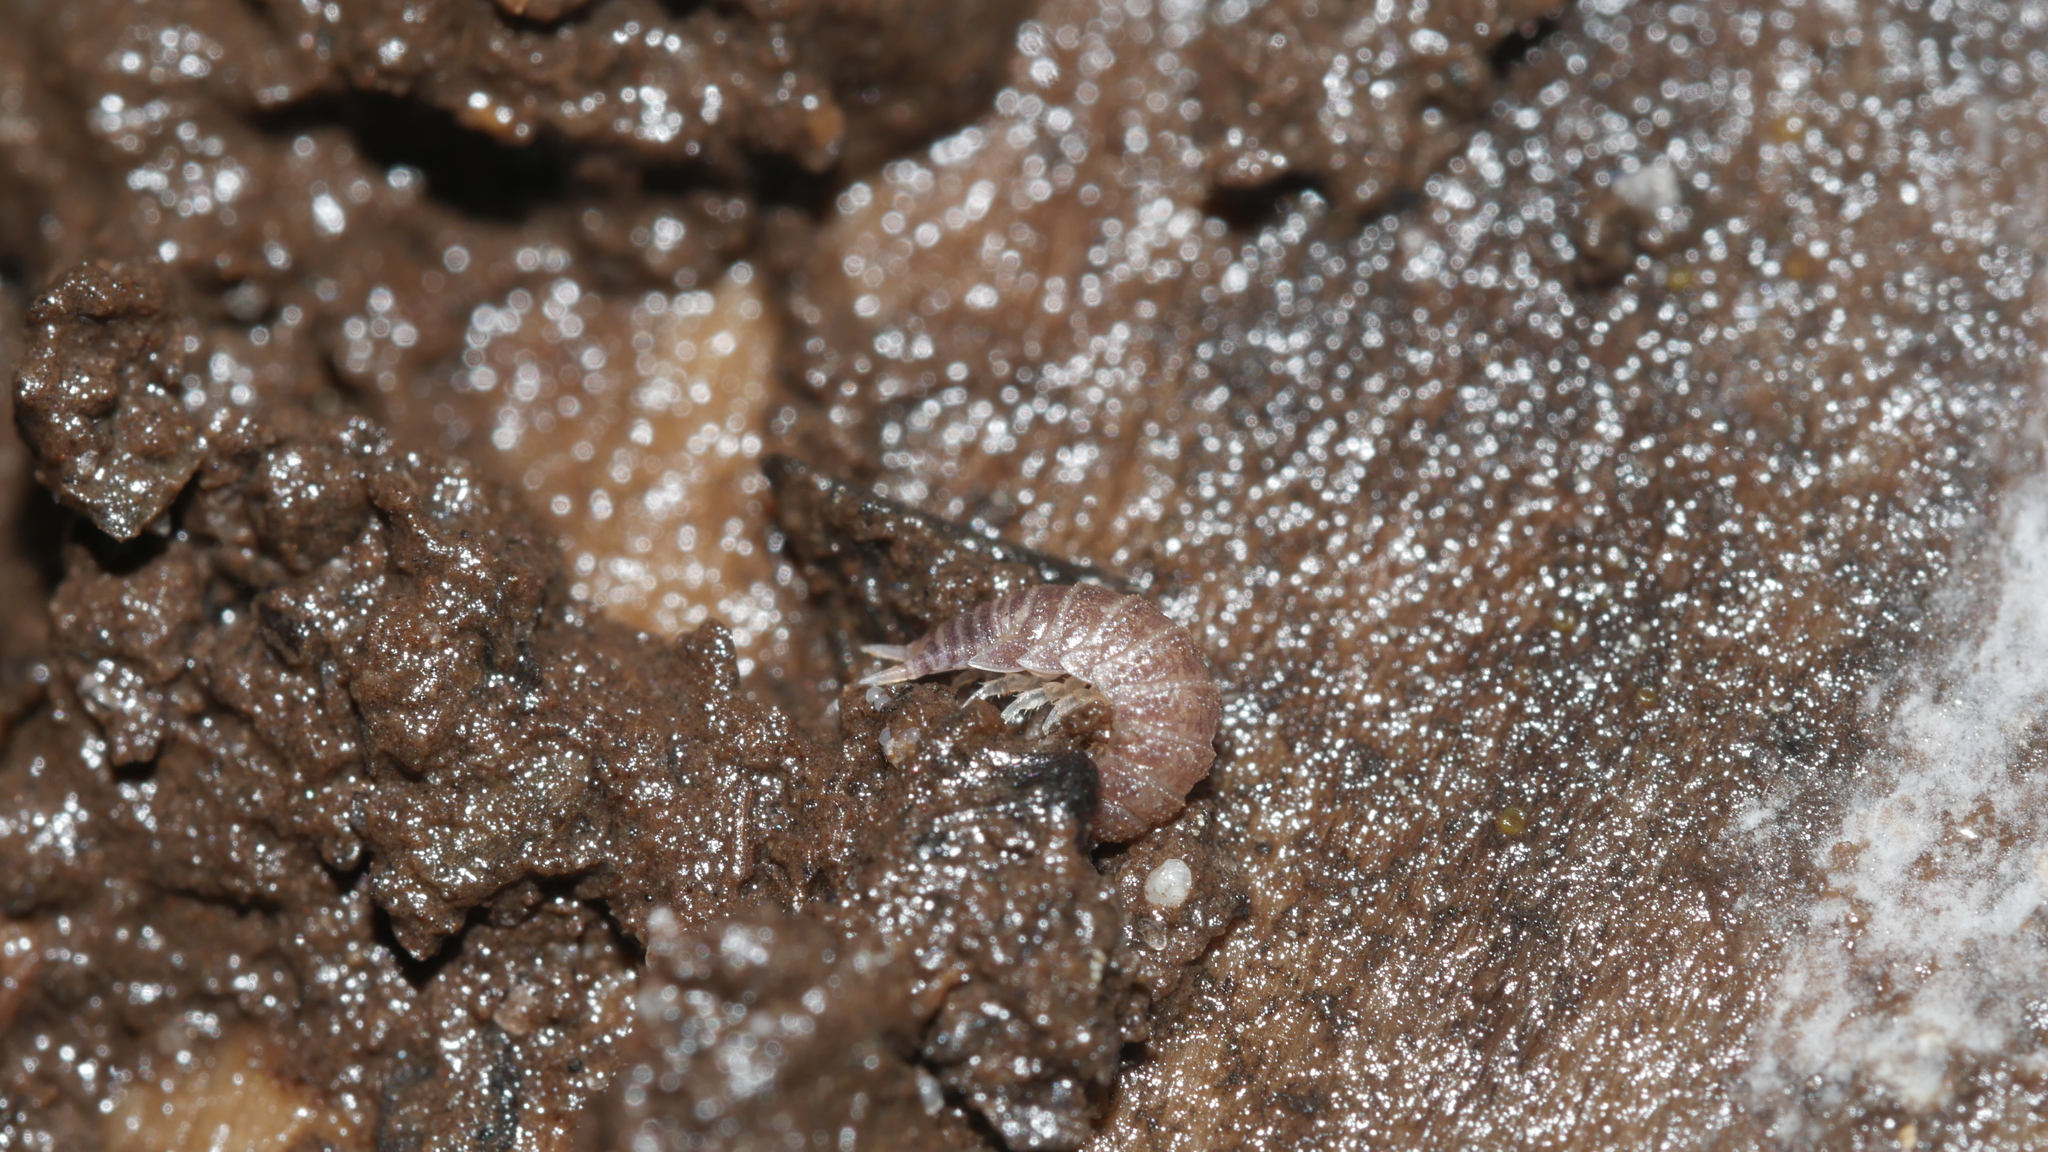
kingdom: Animalia
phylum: Arthropoda
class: Malacostraca
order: Isopoda
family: Trichoniscidae
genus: Miktoniscus
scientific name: Miktoniscus spinosus
